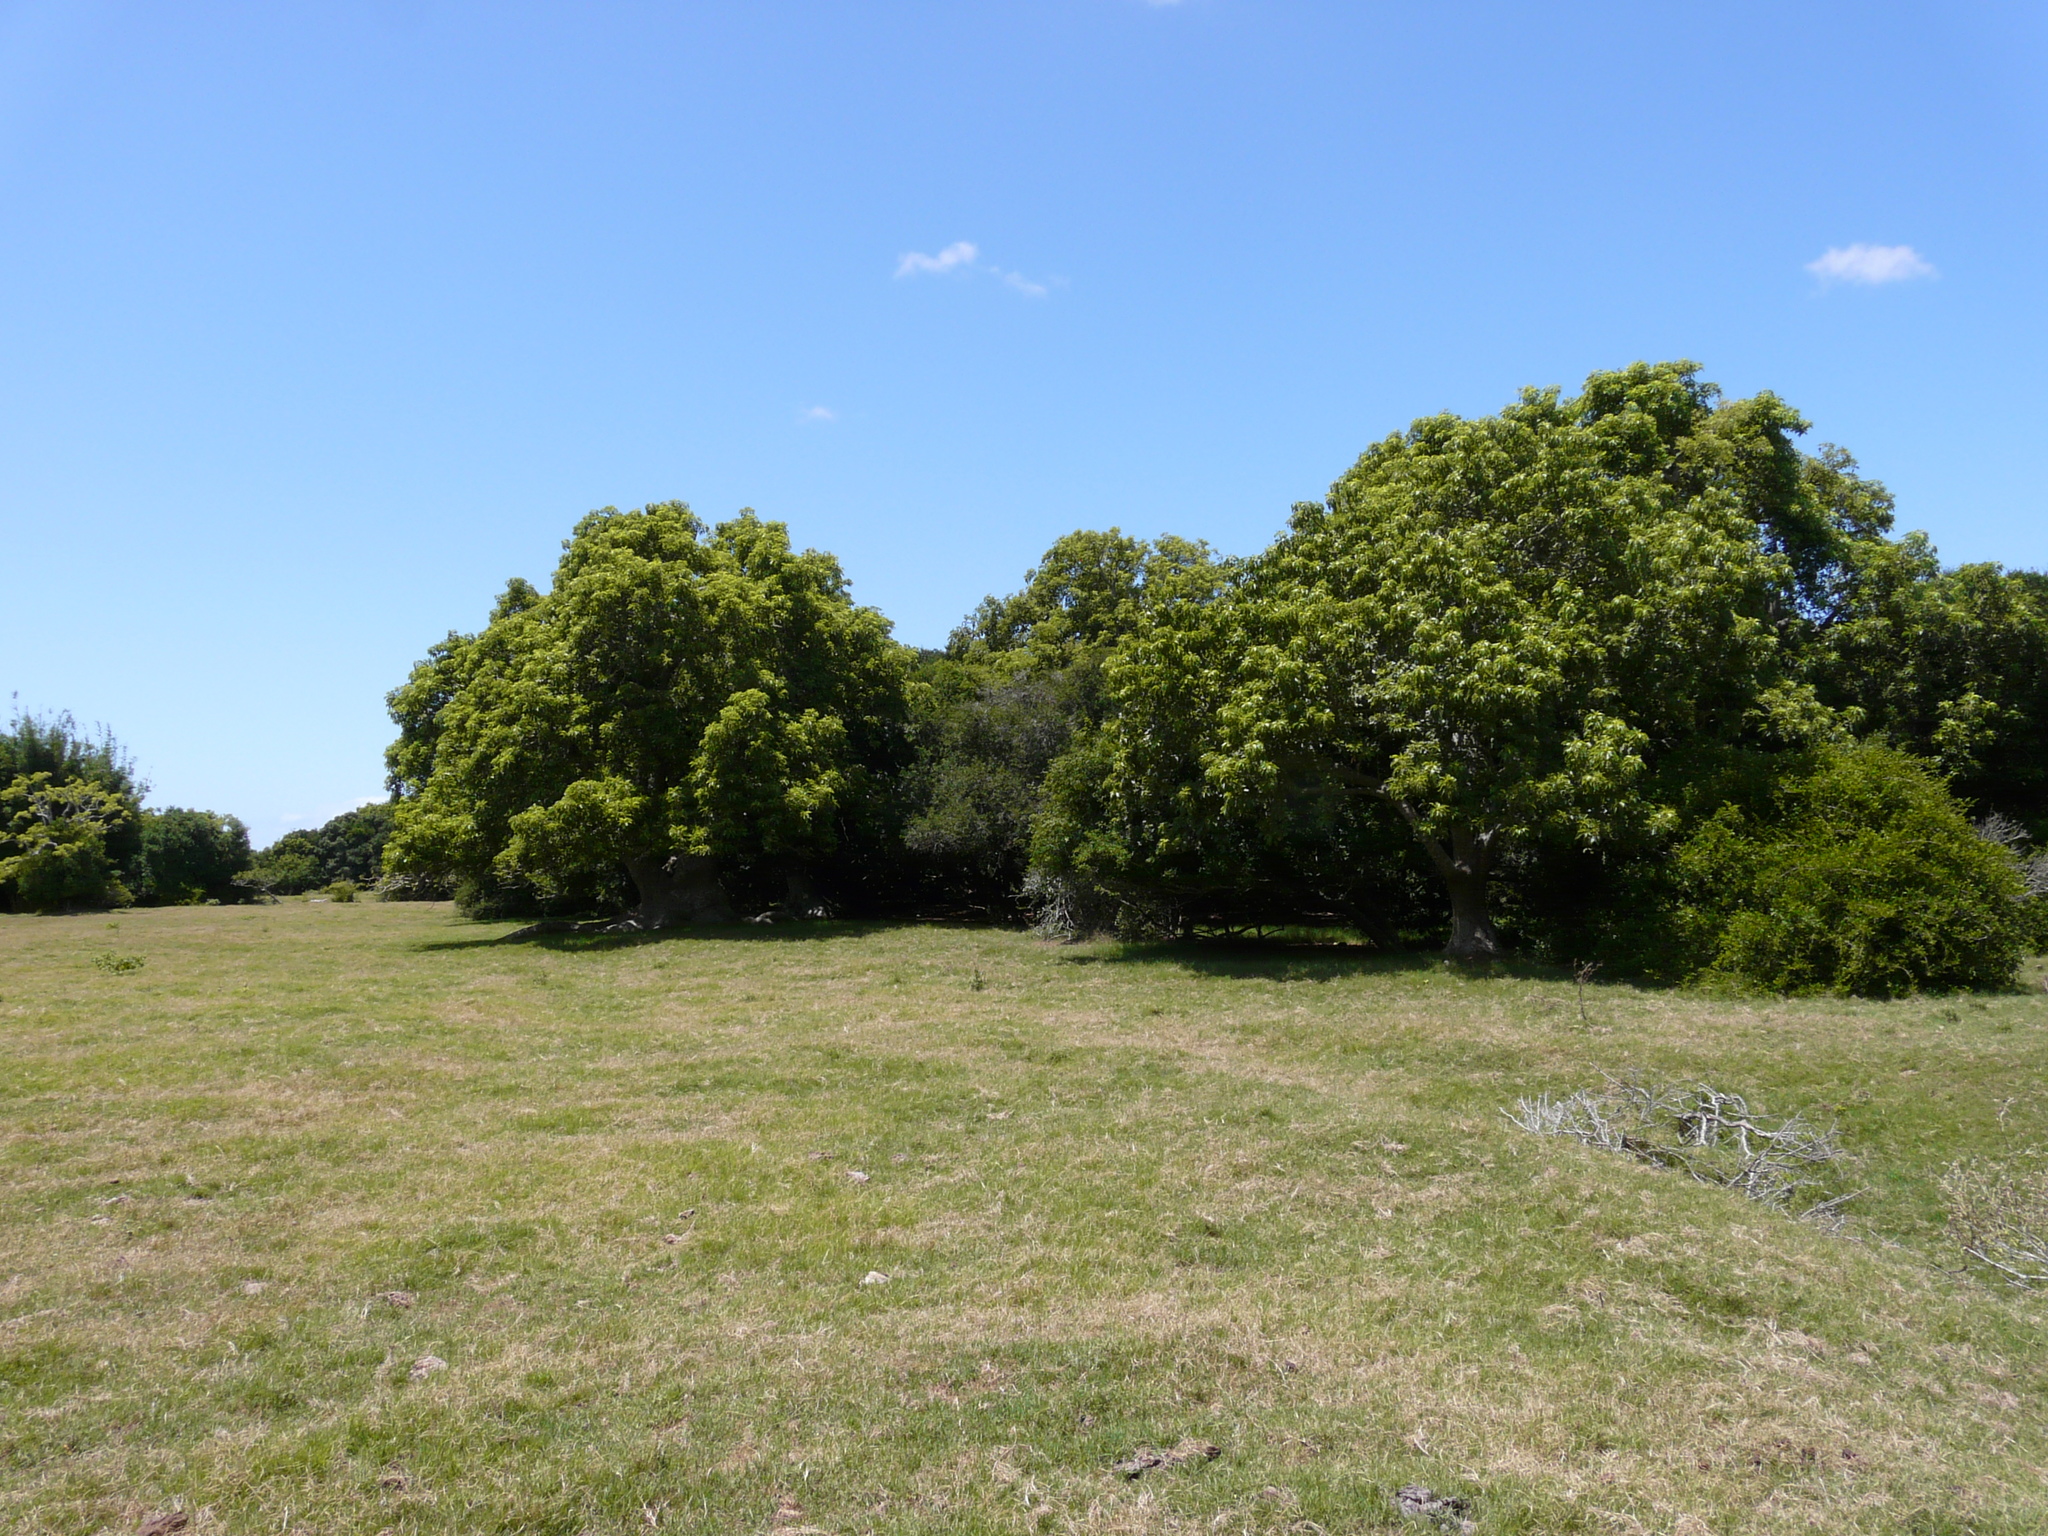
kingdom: Plantae
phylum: Tracheophyta
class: Magnoliopsida
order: Caryophyllales
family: Phytolaccaceae
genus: Phytolacca
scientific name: Phytolacca dioica
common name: Pokeweed
